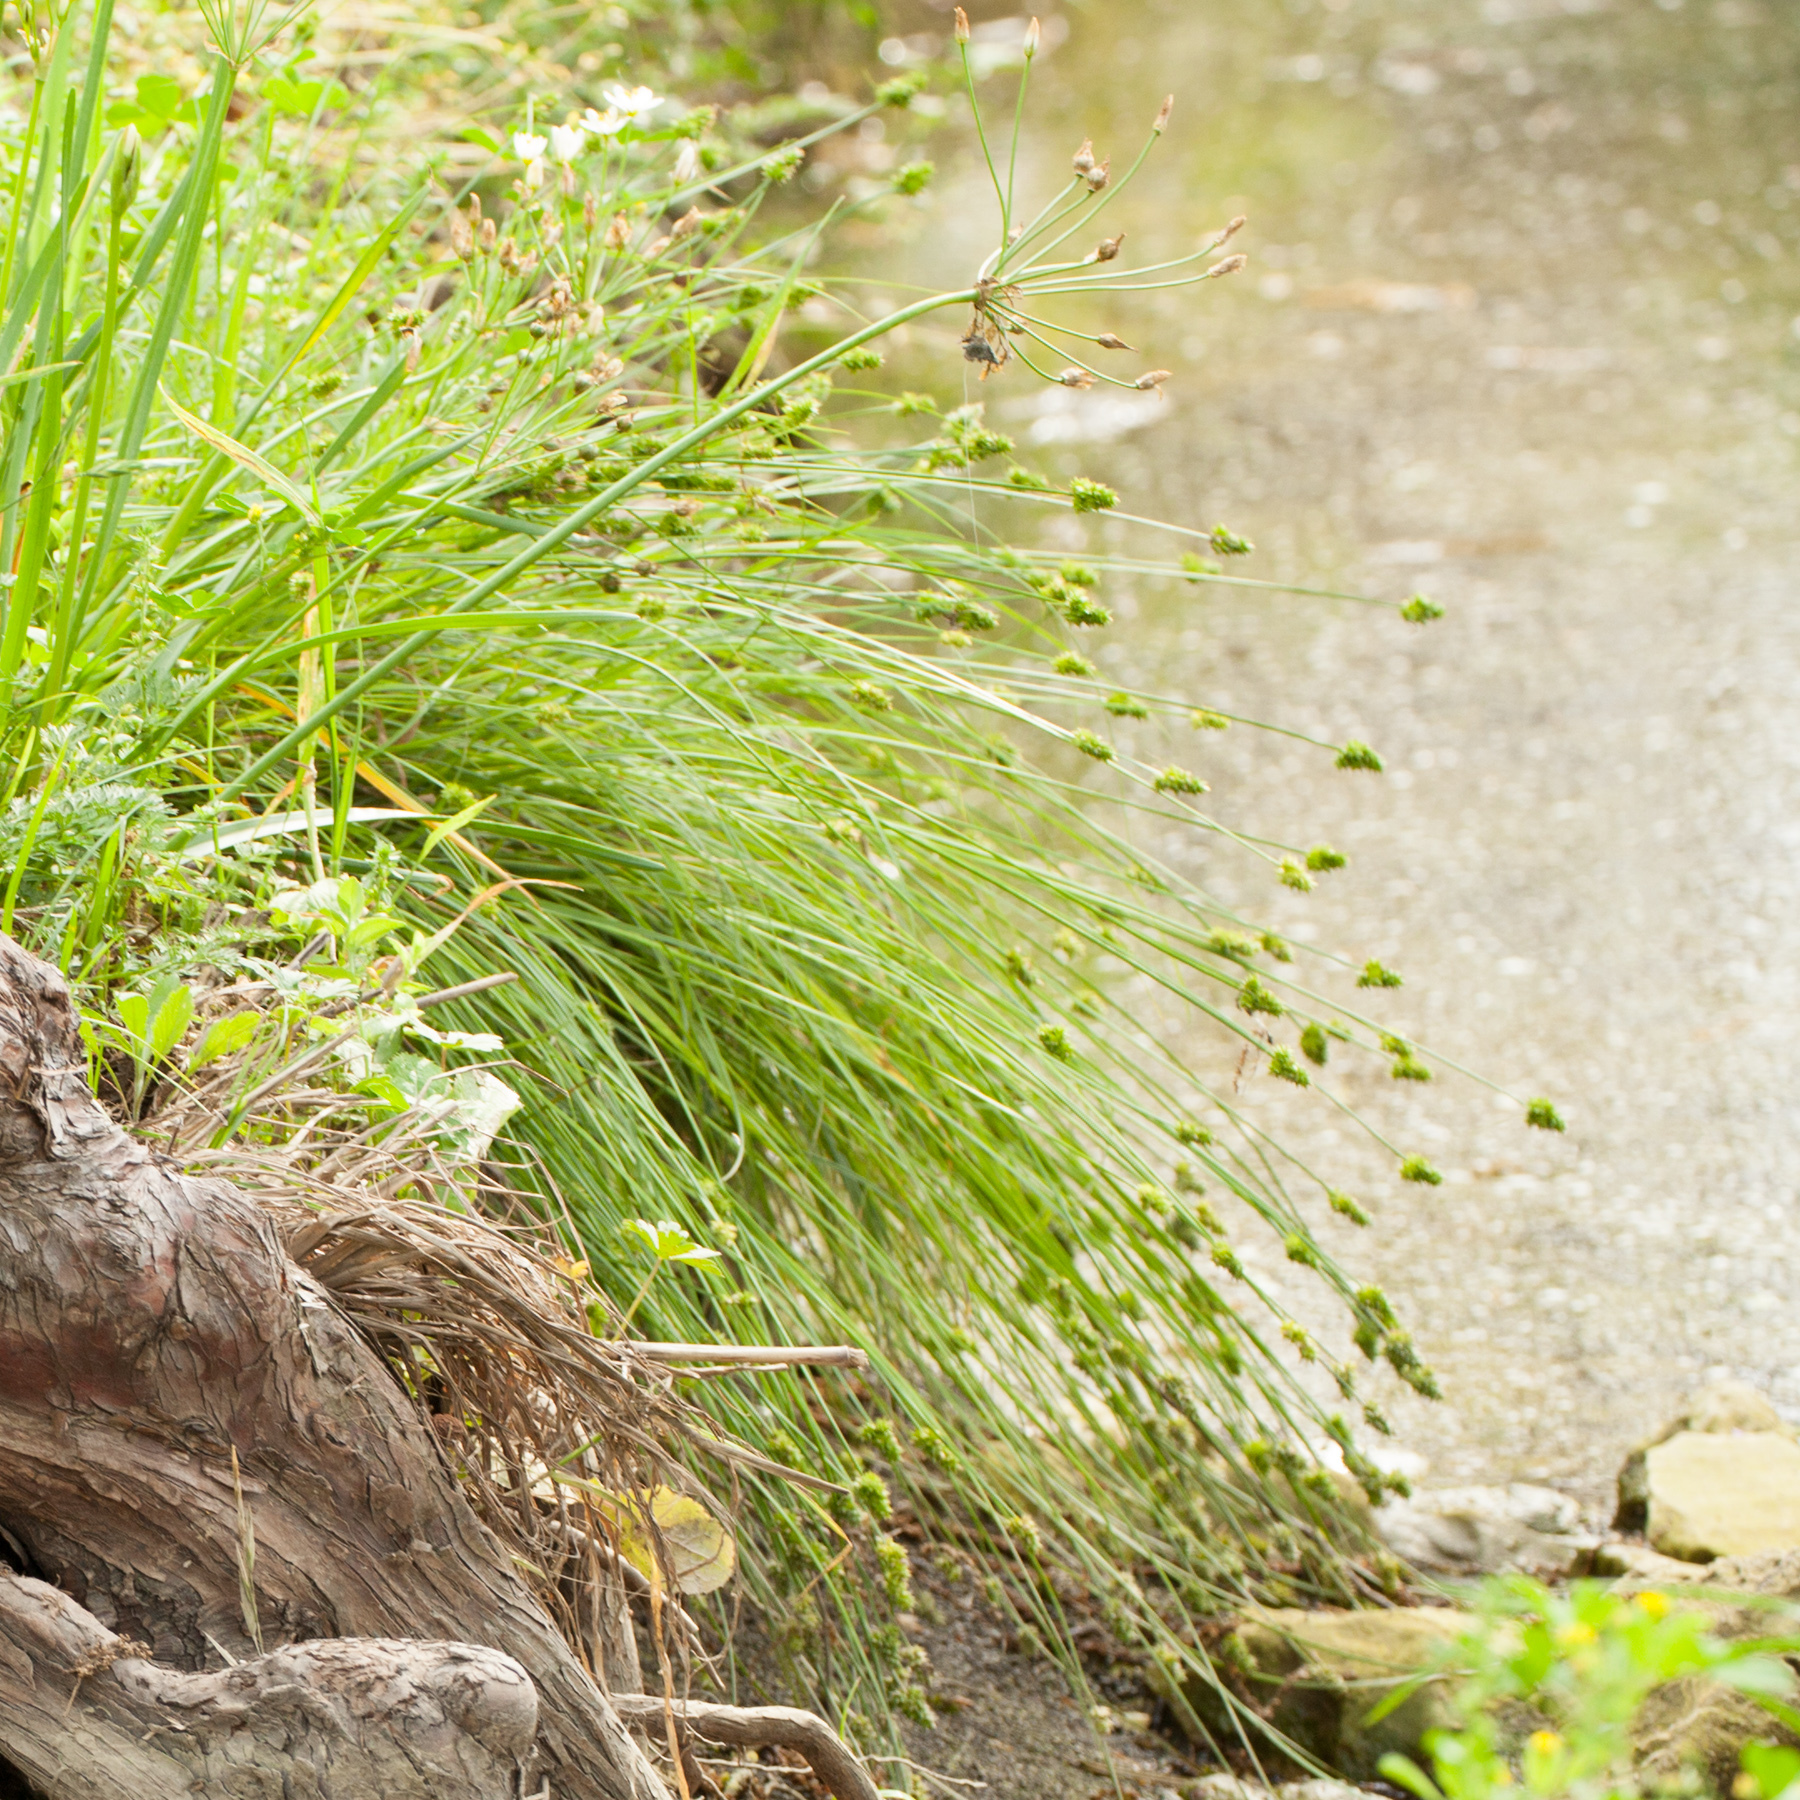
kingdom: Plantae
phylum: Tracheophyta
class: Liliopsida
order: Poales
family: Cyperaceae
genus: Carex
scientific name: Carex leavenworthii
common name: Leavenworth's bracted sedge
